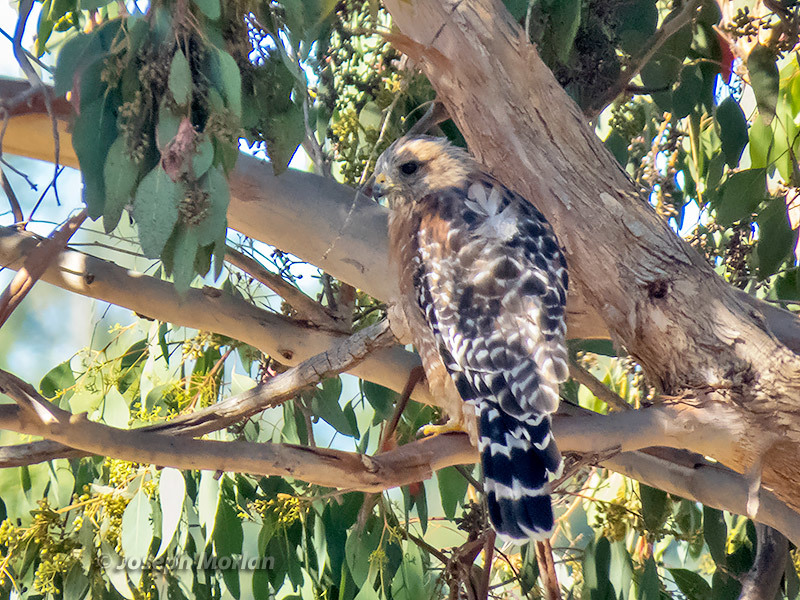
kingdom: Animalia
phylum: Chordata
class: Aves
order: Accipitriformes
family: Accipitridae
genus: Buteo
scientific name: Buteo lineatus
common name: Red-shouldered hawk
